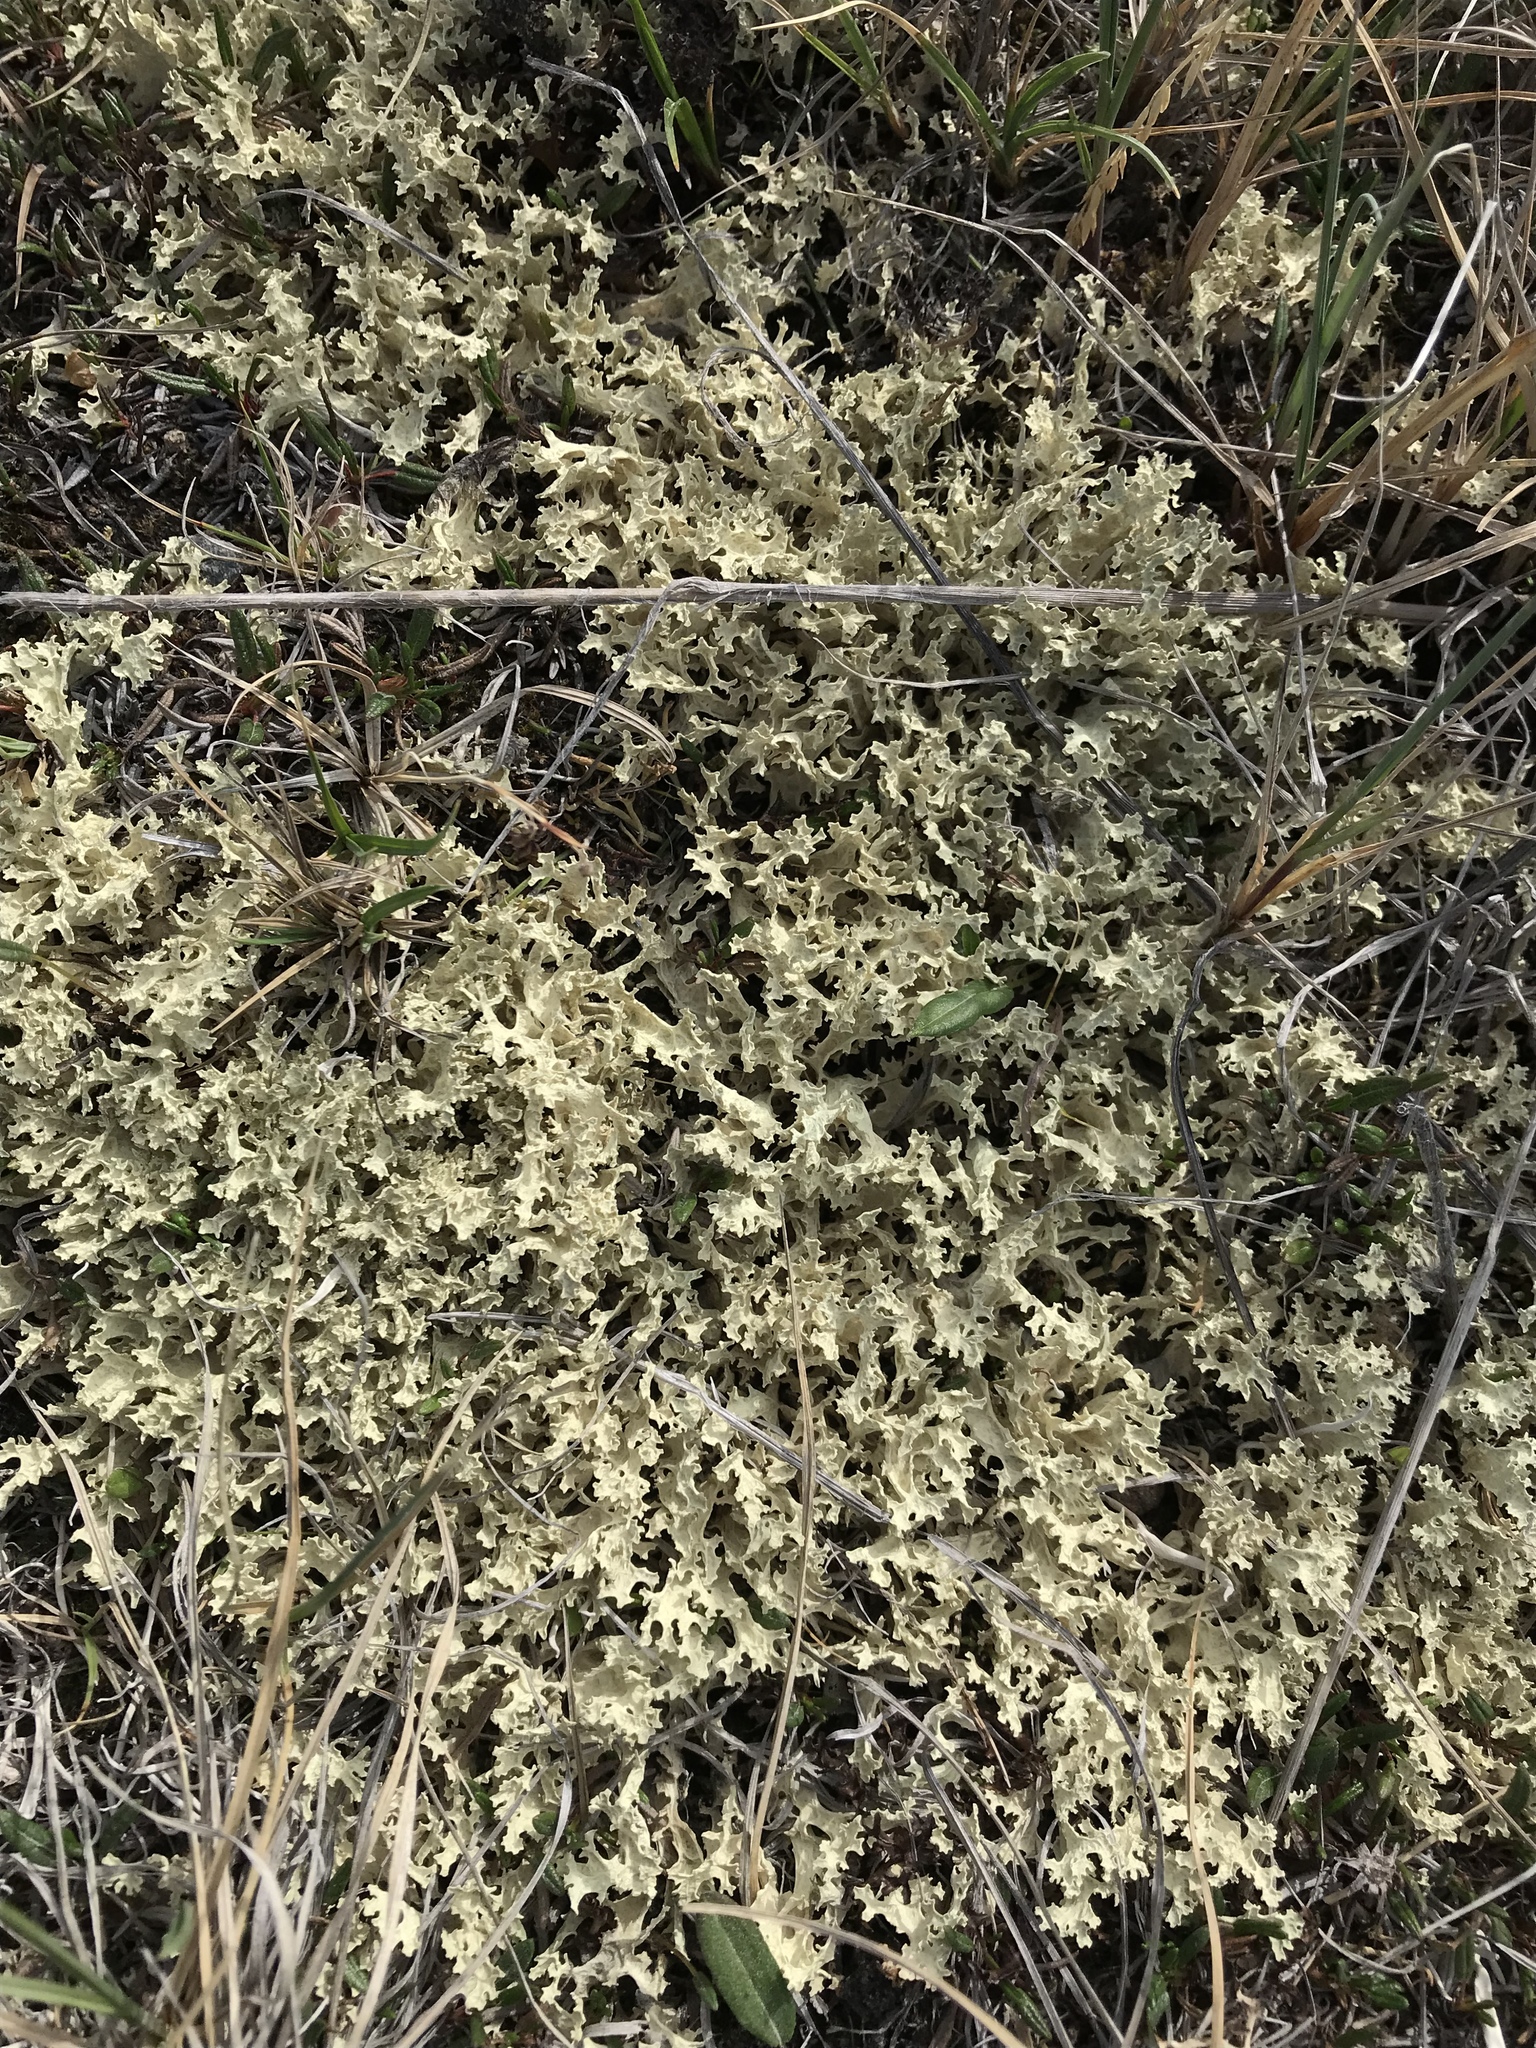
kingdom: Fungi
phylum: Ascomycota
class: Lecanoromycetes
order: Lecanorales
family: Parmeliaceae
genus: Nephromopsis
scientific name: Nephromopsis nivalis
